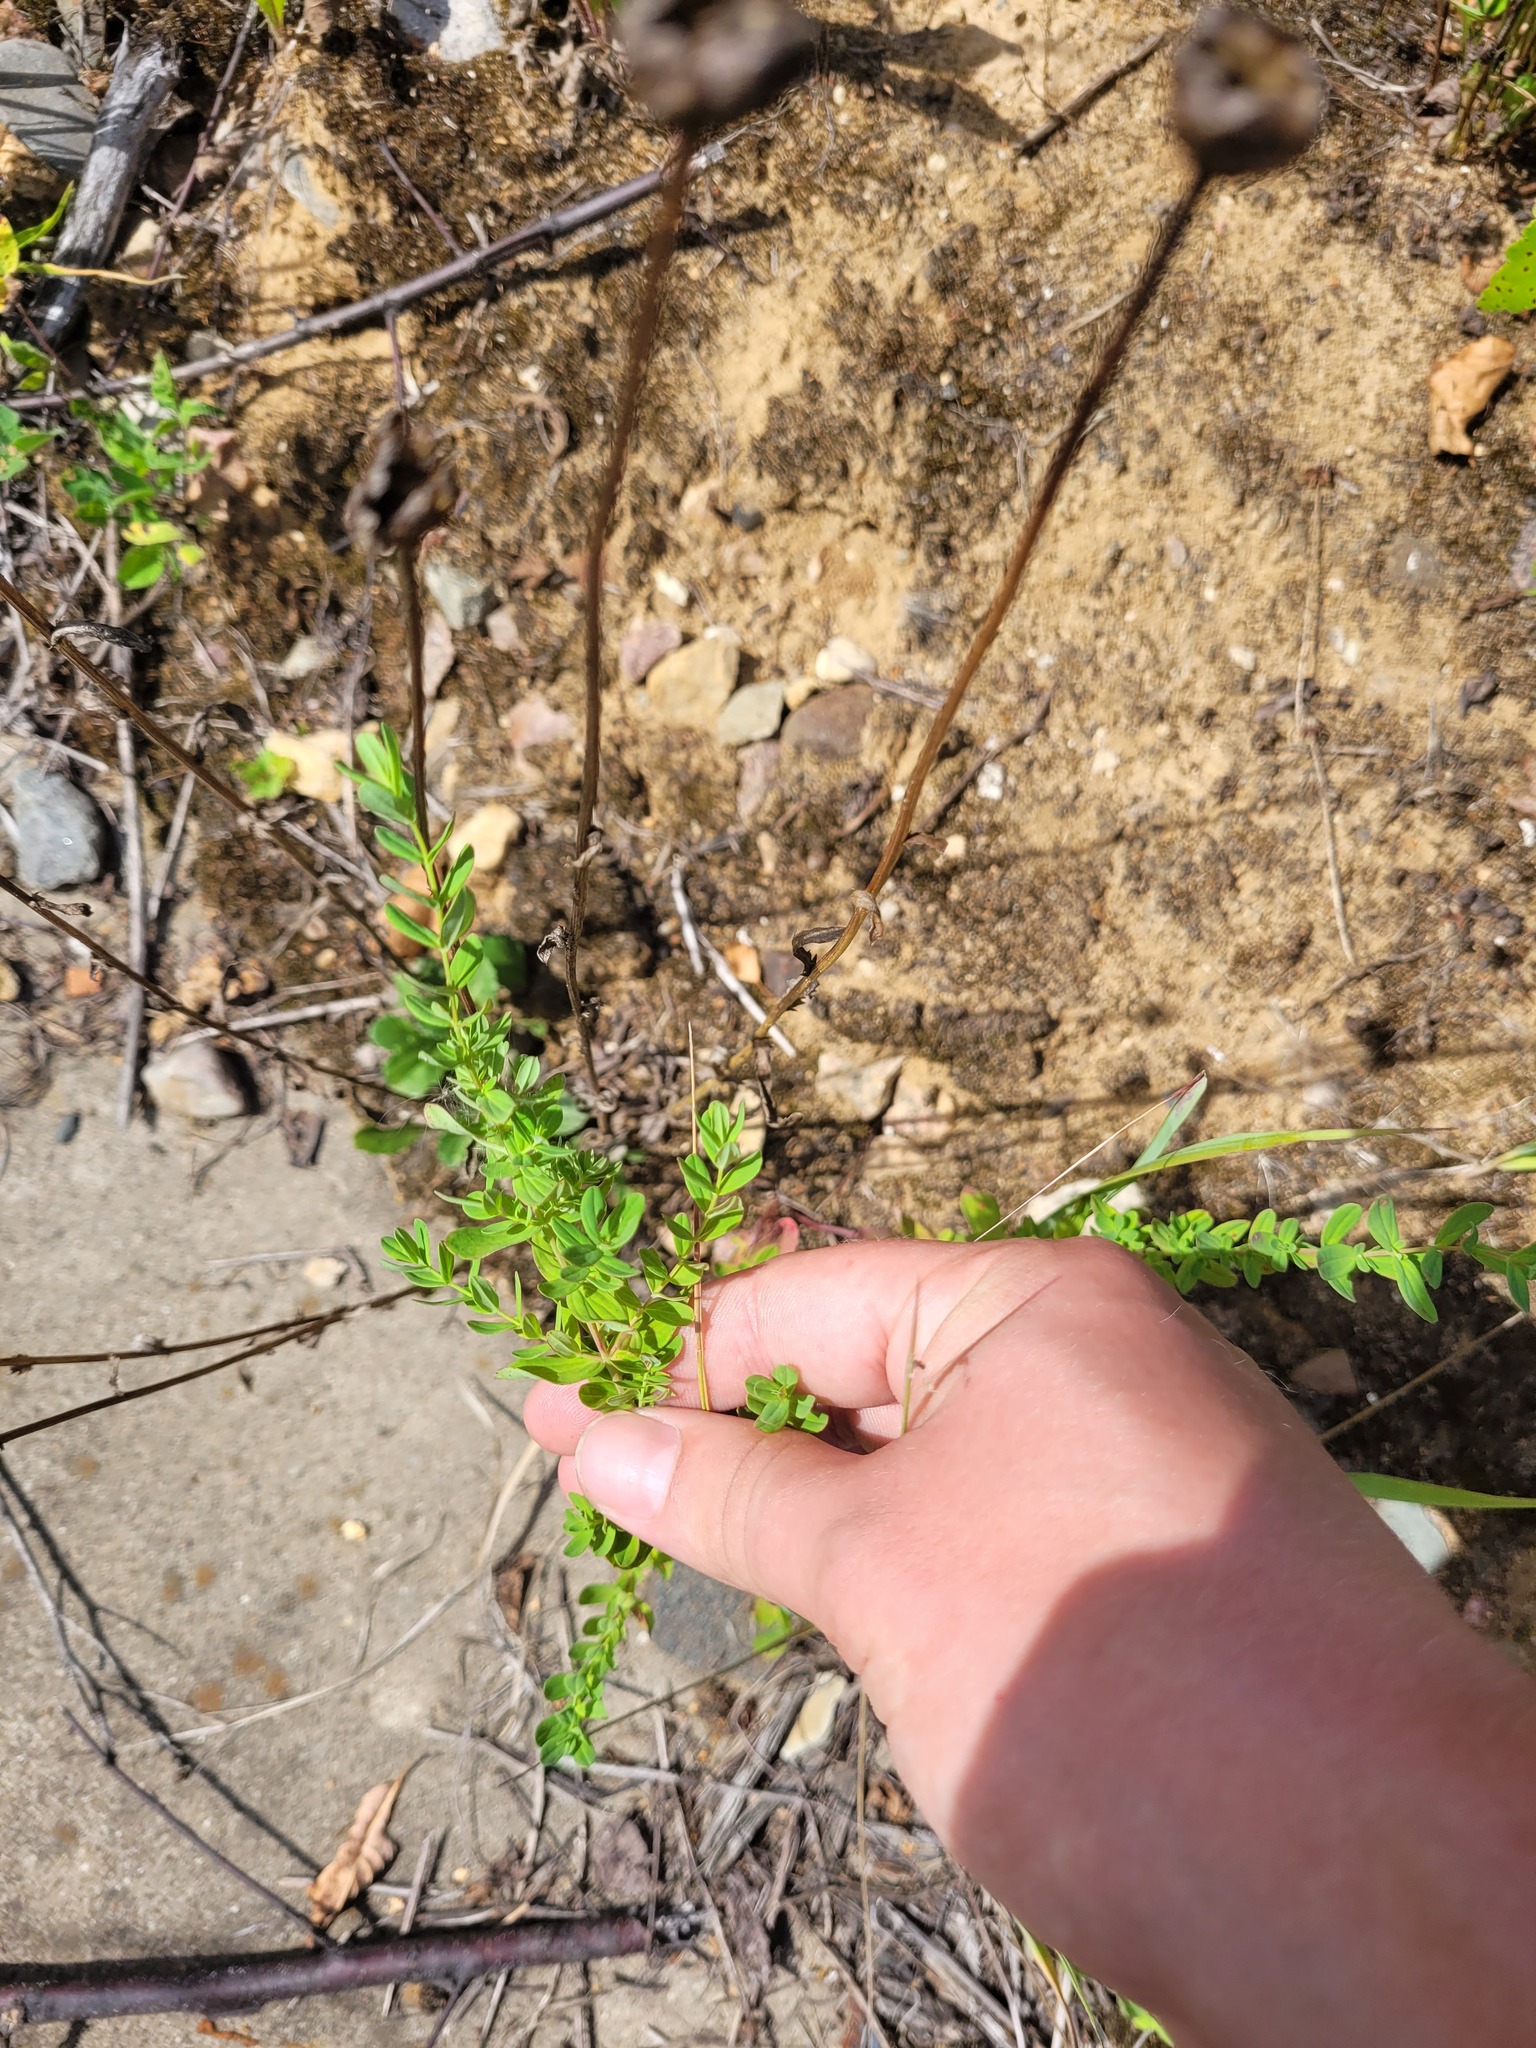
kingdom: Plantae
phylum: Tracheophyta
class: Magnoliopsida
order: Malpighiales
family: Hypericaceae
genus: Hypericum
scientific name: Hypericum perforatum
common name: Common st. johnswort
